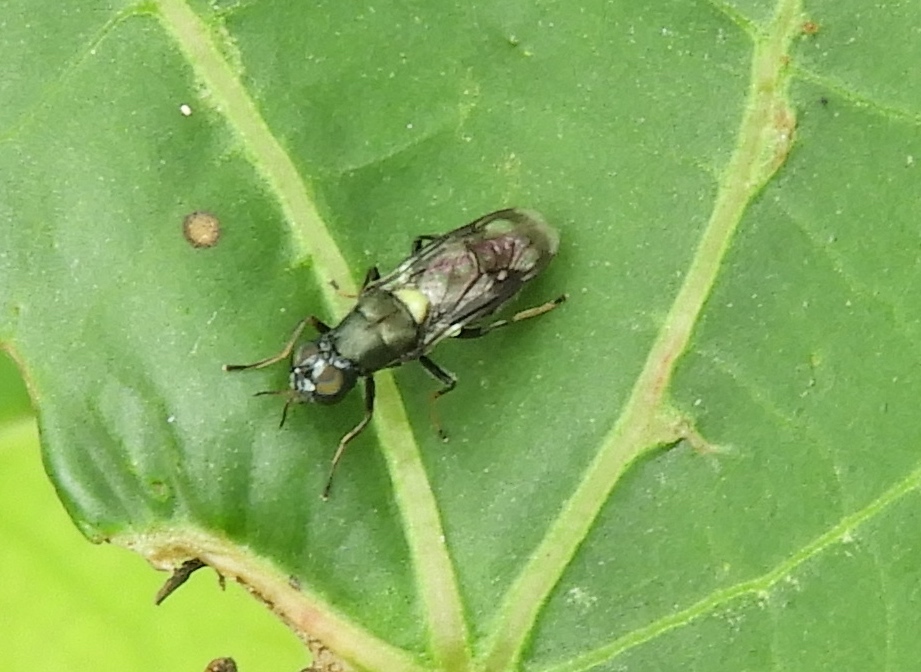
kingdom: Animalia
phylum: Arthropoda
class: Insecta
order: Diptera
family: Stratiomyidae
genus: Myxosargus
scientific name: Myxosargus
